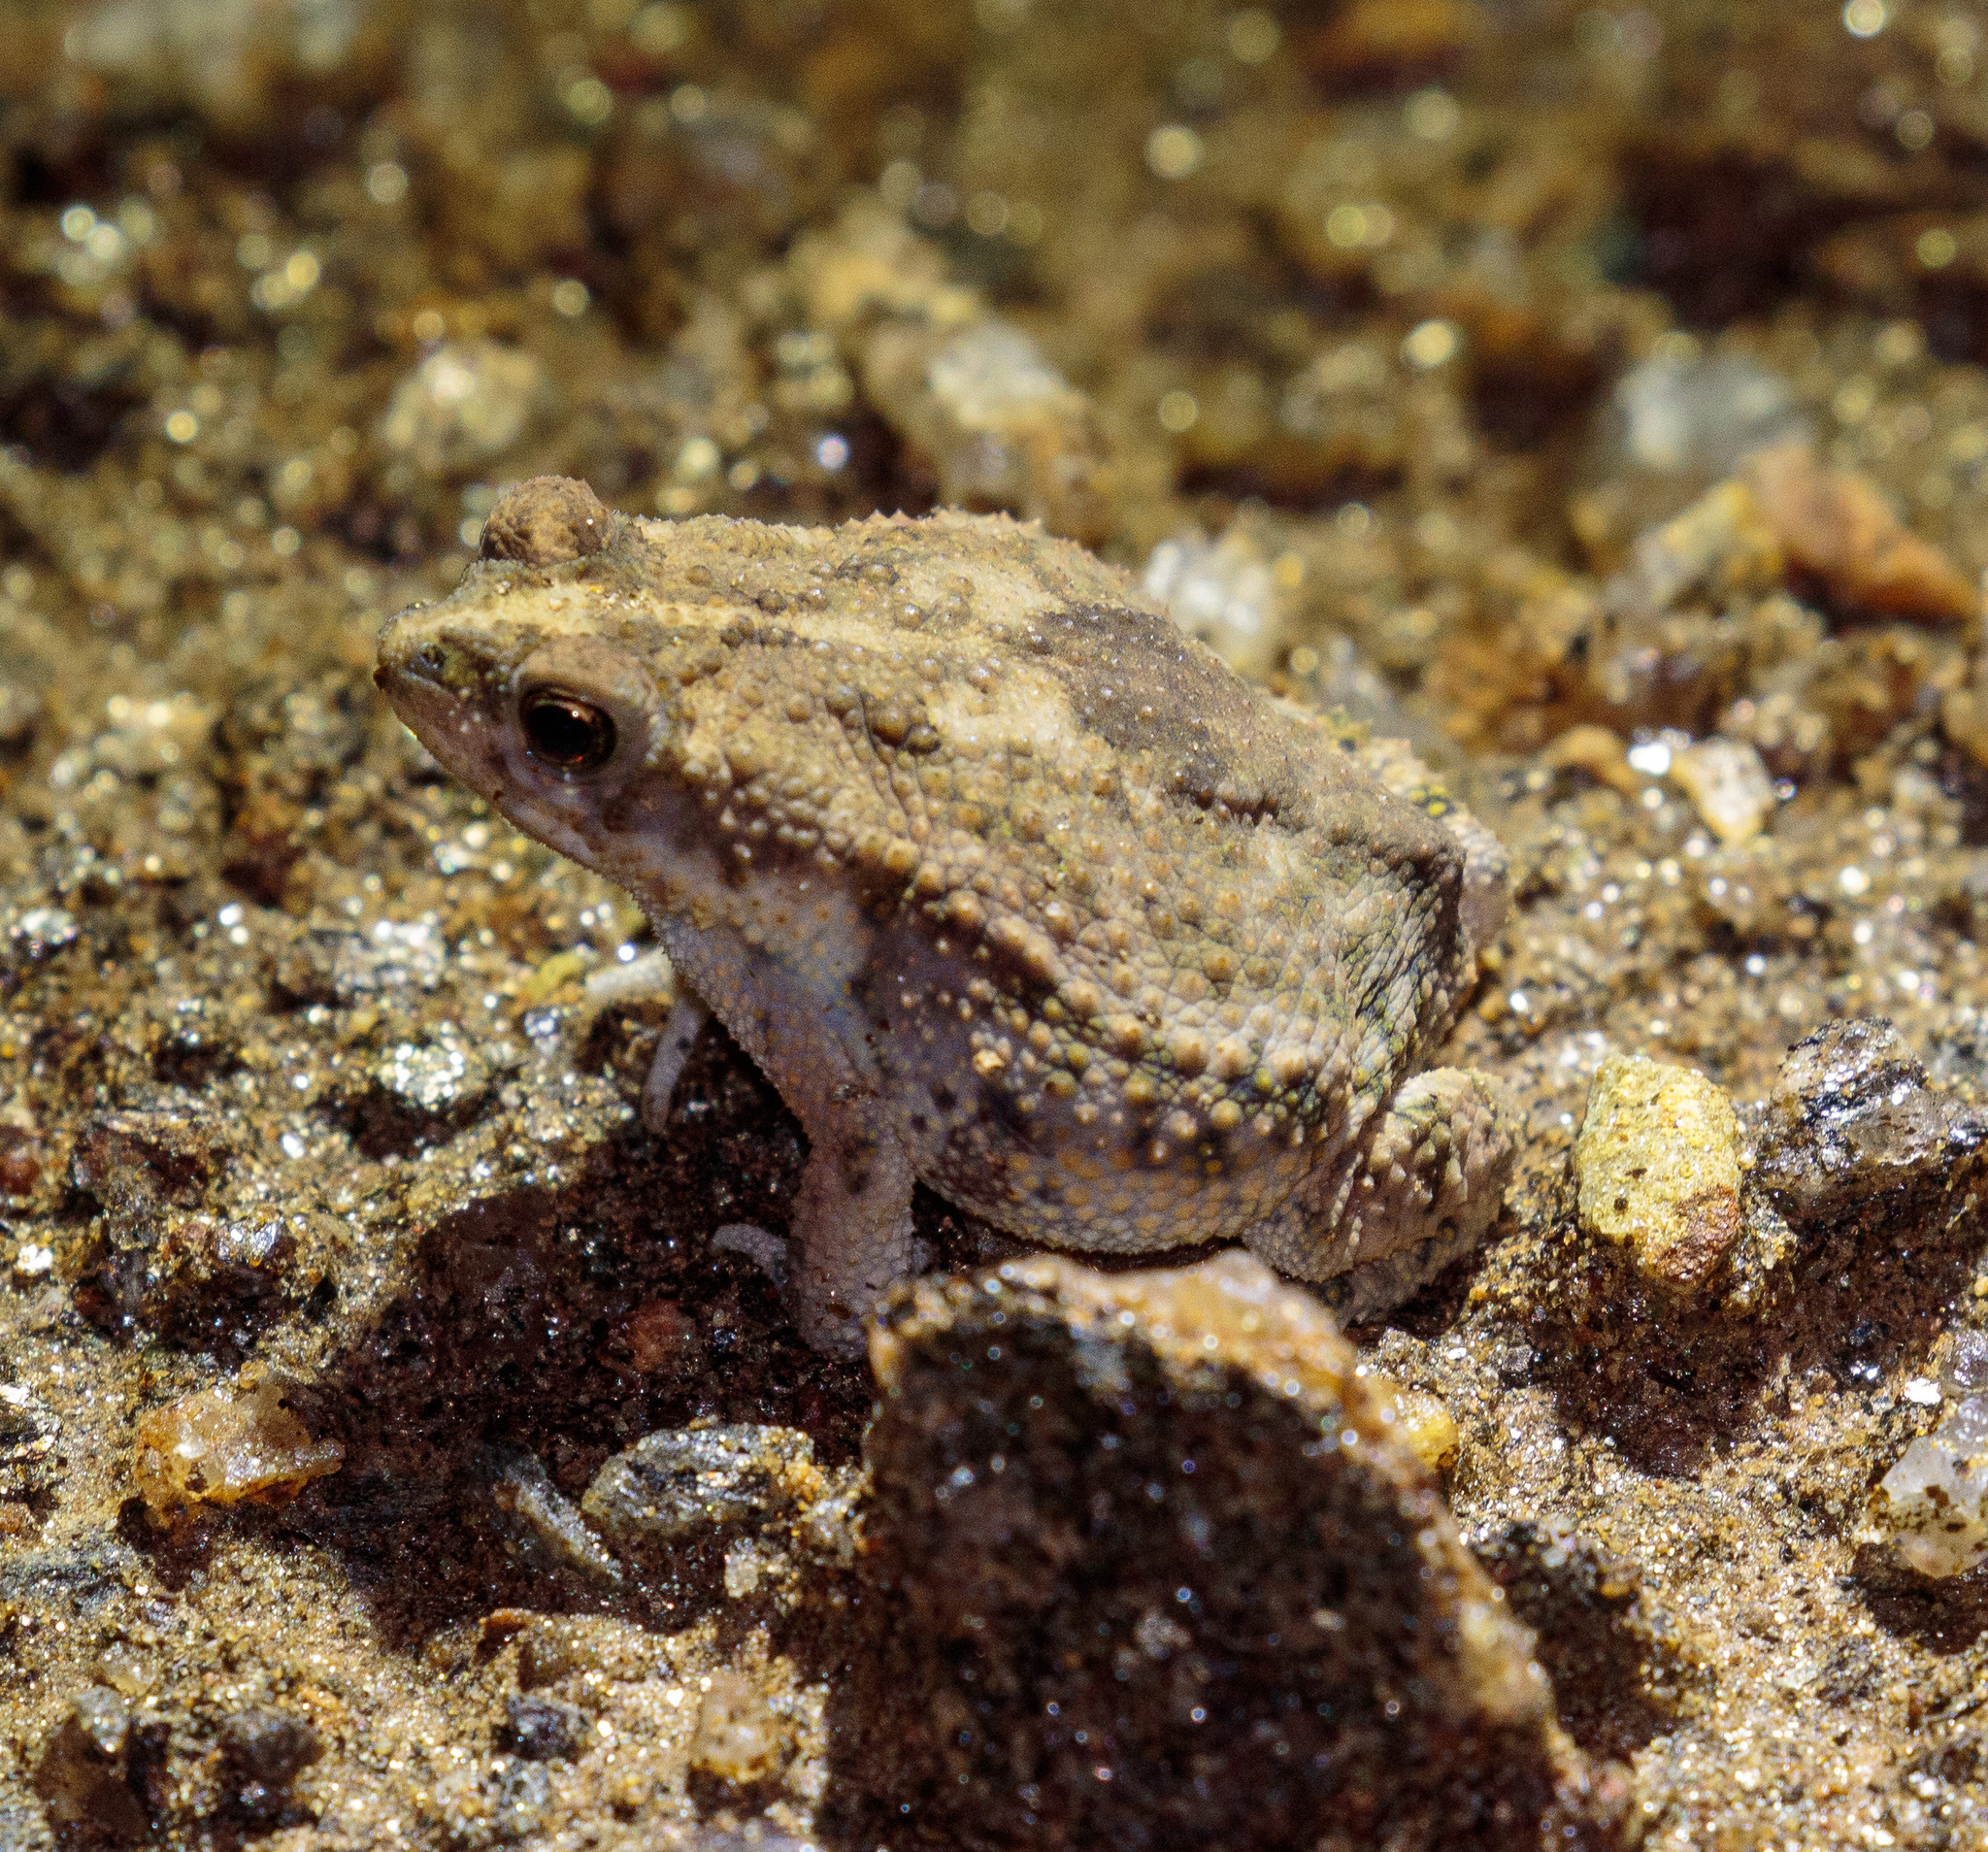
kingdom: Animalia
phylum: Chordata
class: Amphibia
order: Anura
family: Bufonidae
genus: Rhinella
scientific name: Rhinella granulosa
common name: Common lesser toad
